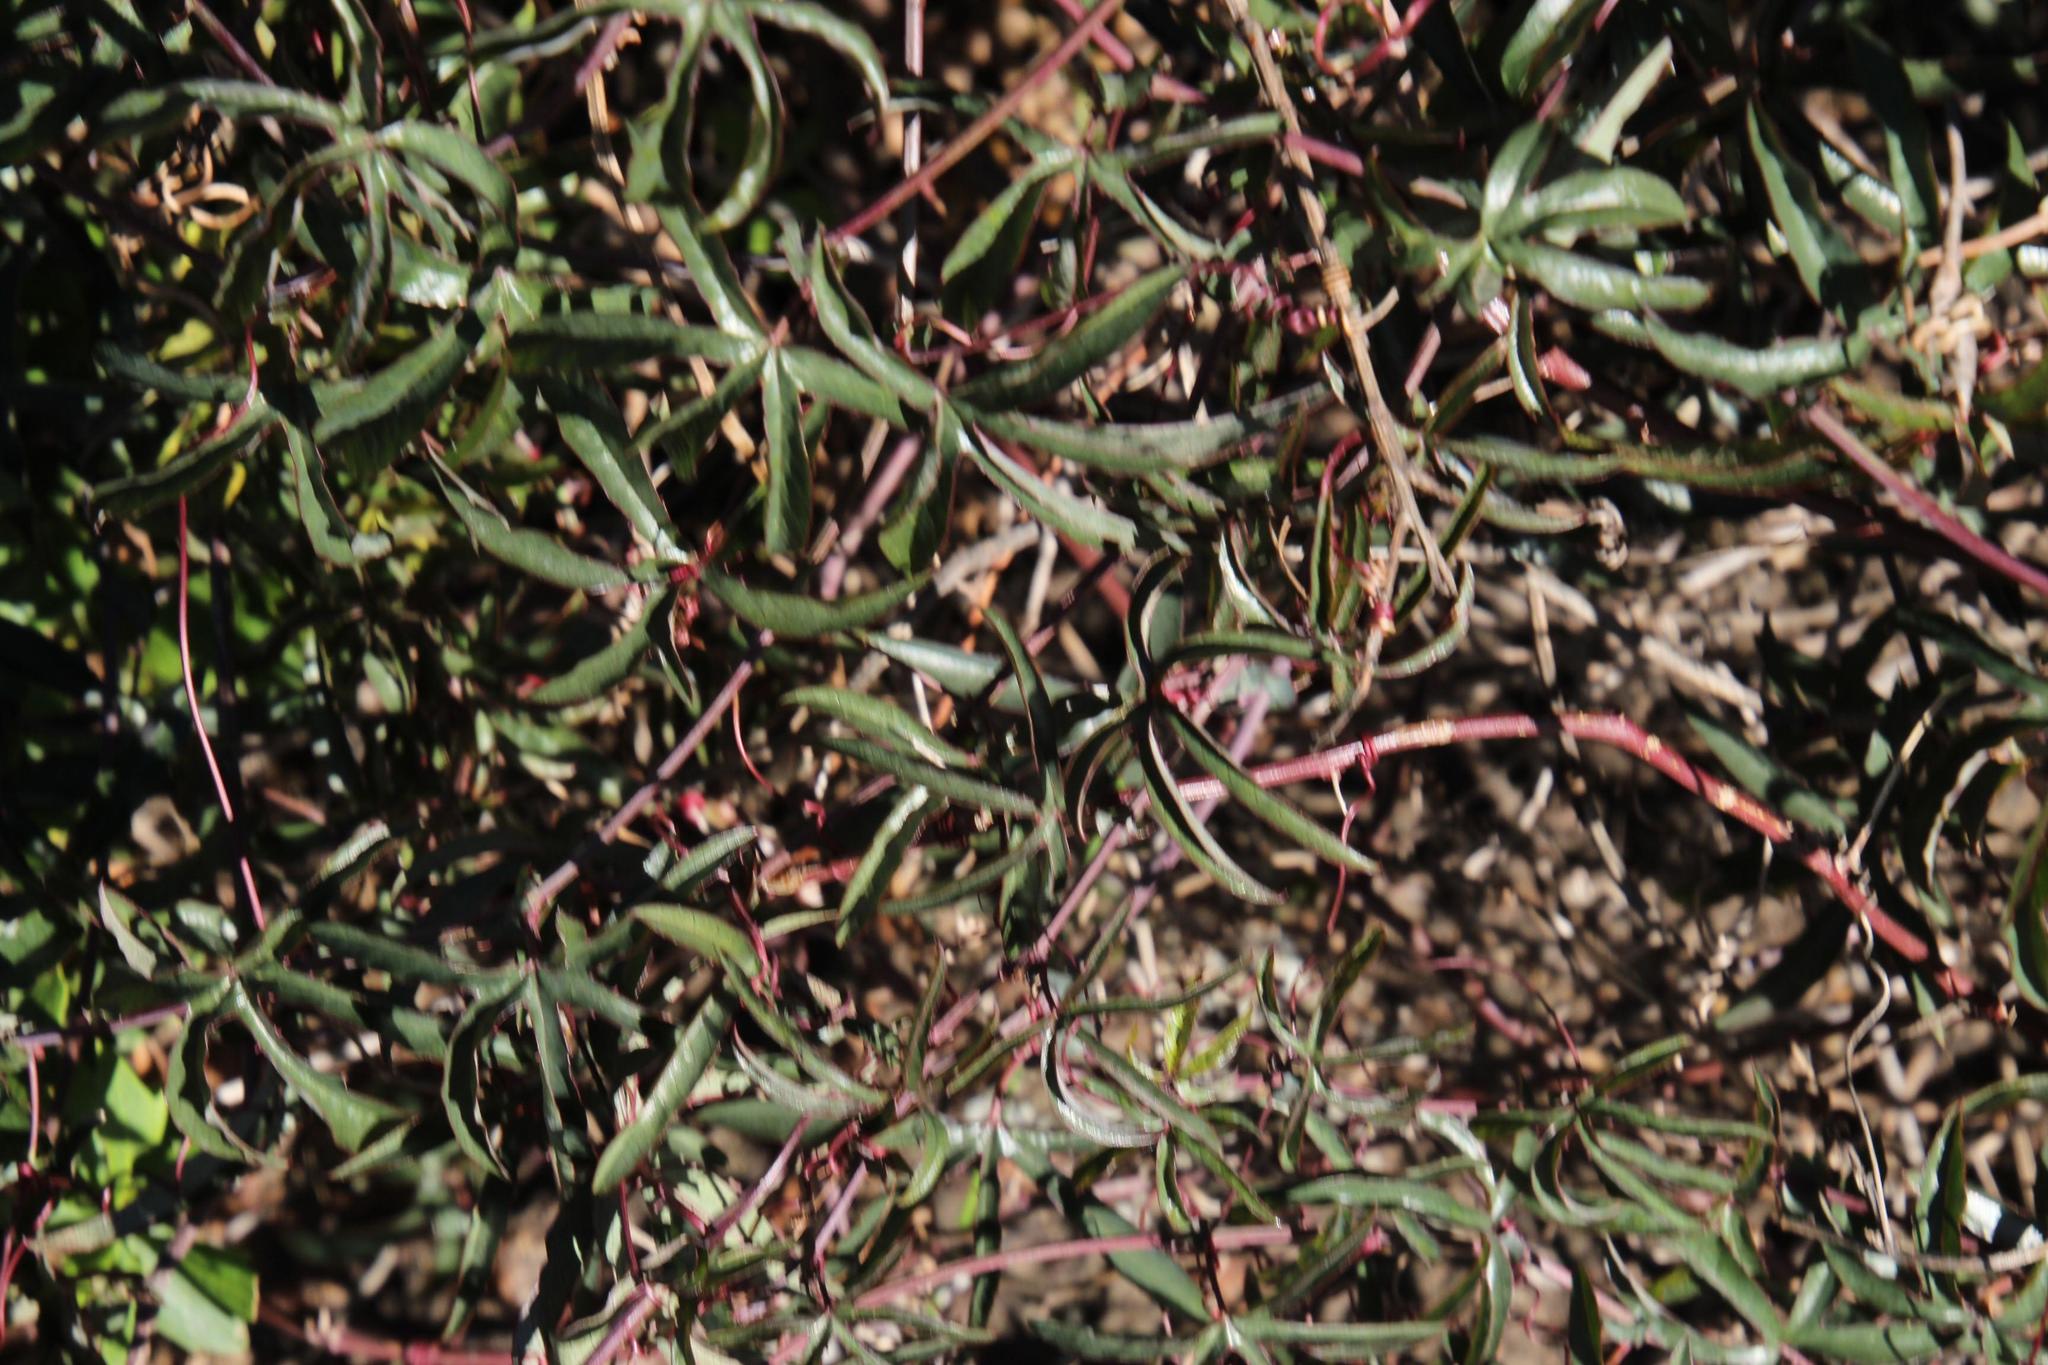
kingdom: Plantae
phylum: Tracheophyta
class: Magnoliopsida
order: Malpighiales
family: Passifloraceae
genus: Passiflora
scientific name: Passiflora caerulea
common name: Blue passionflower
